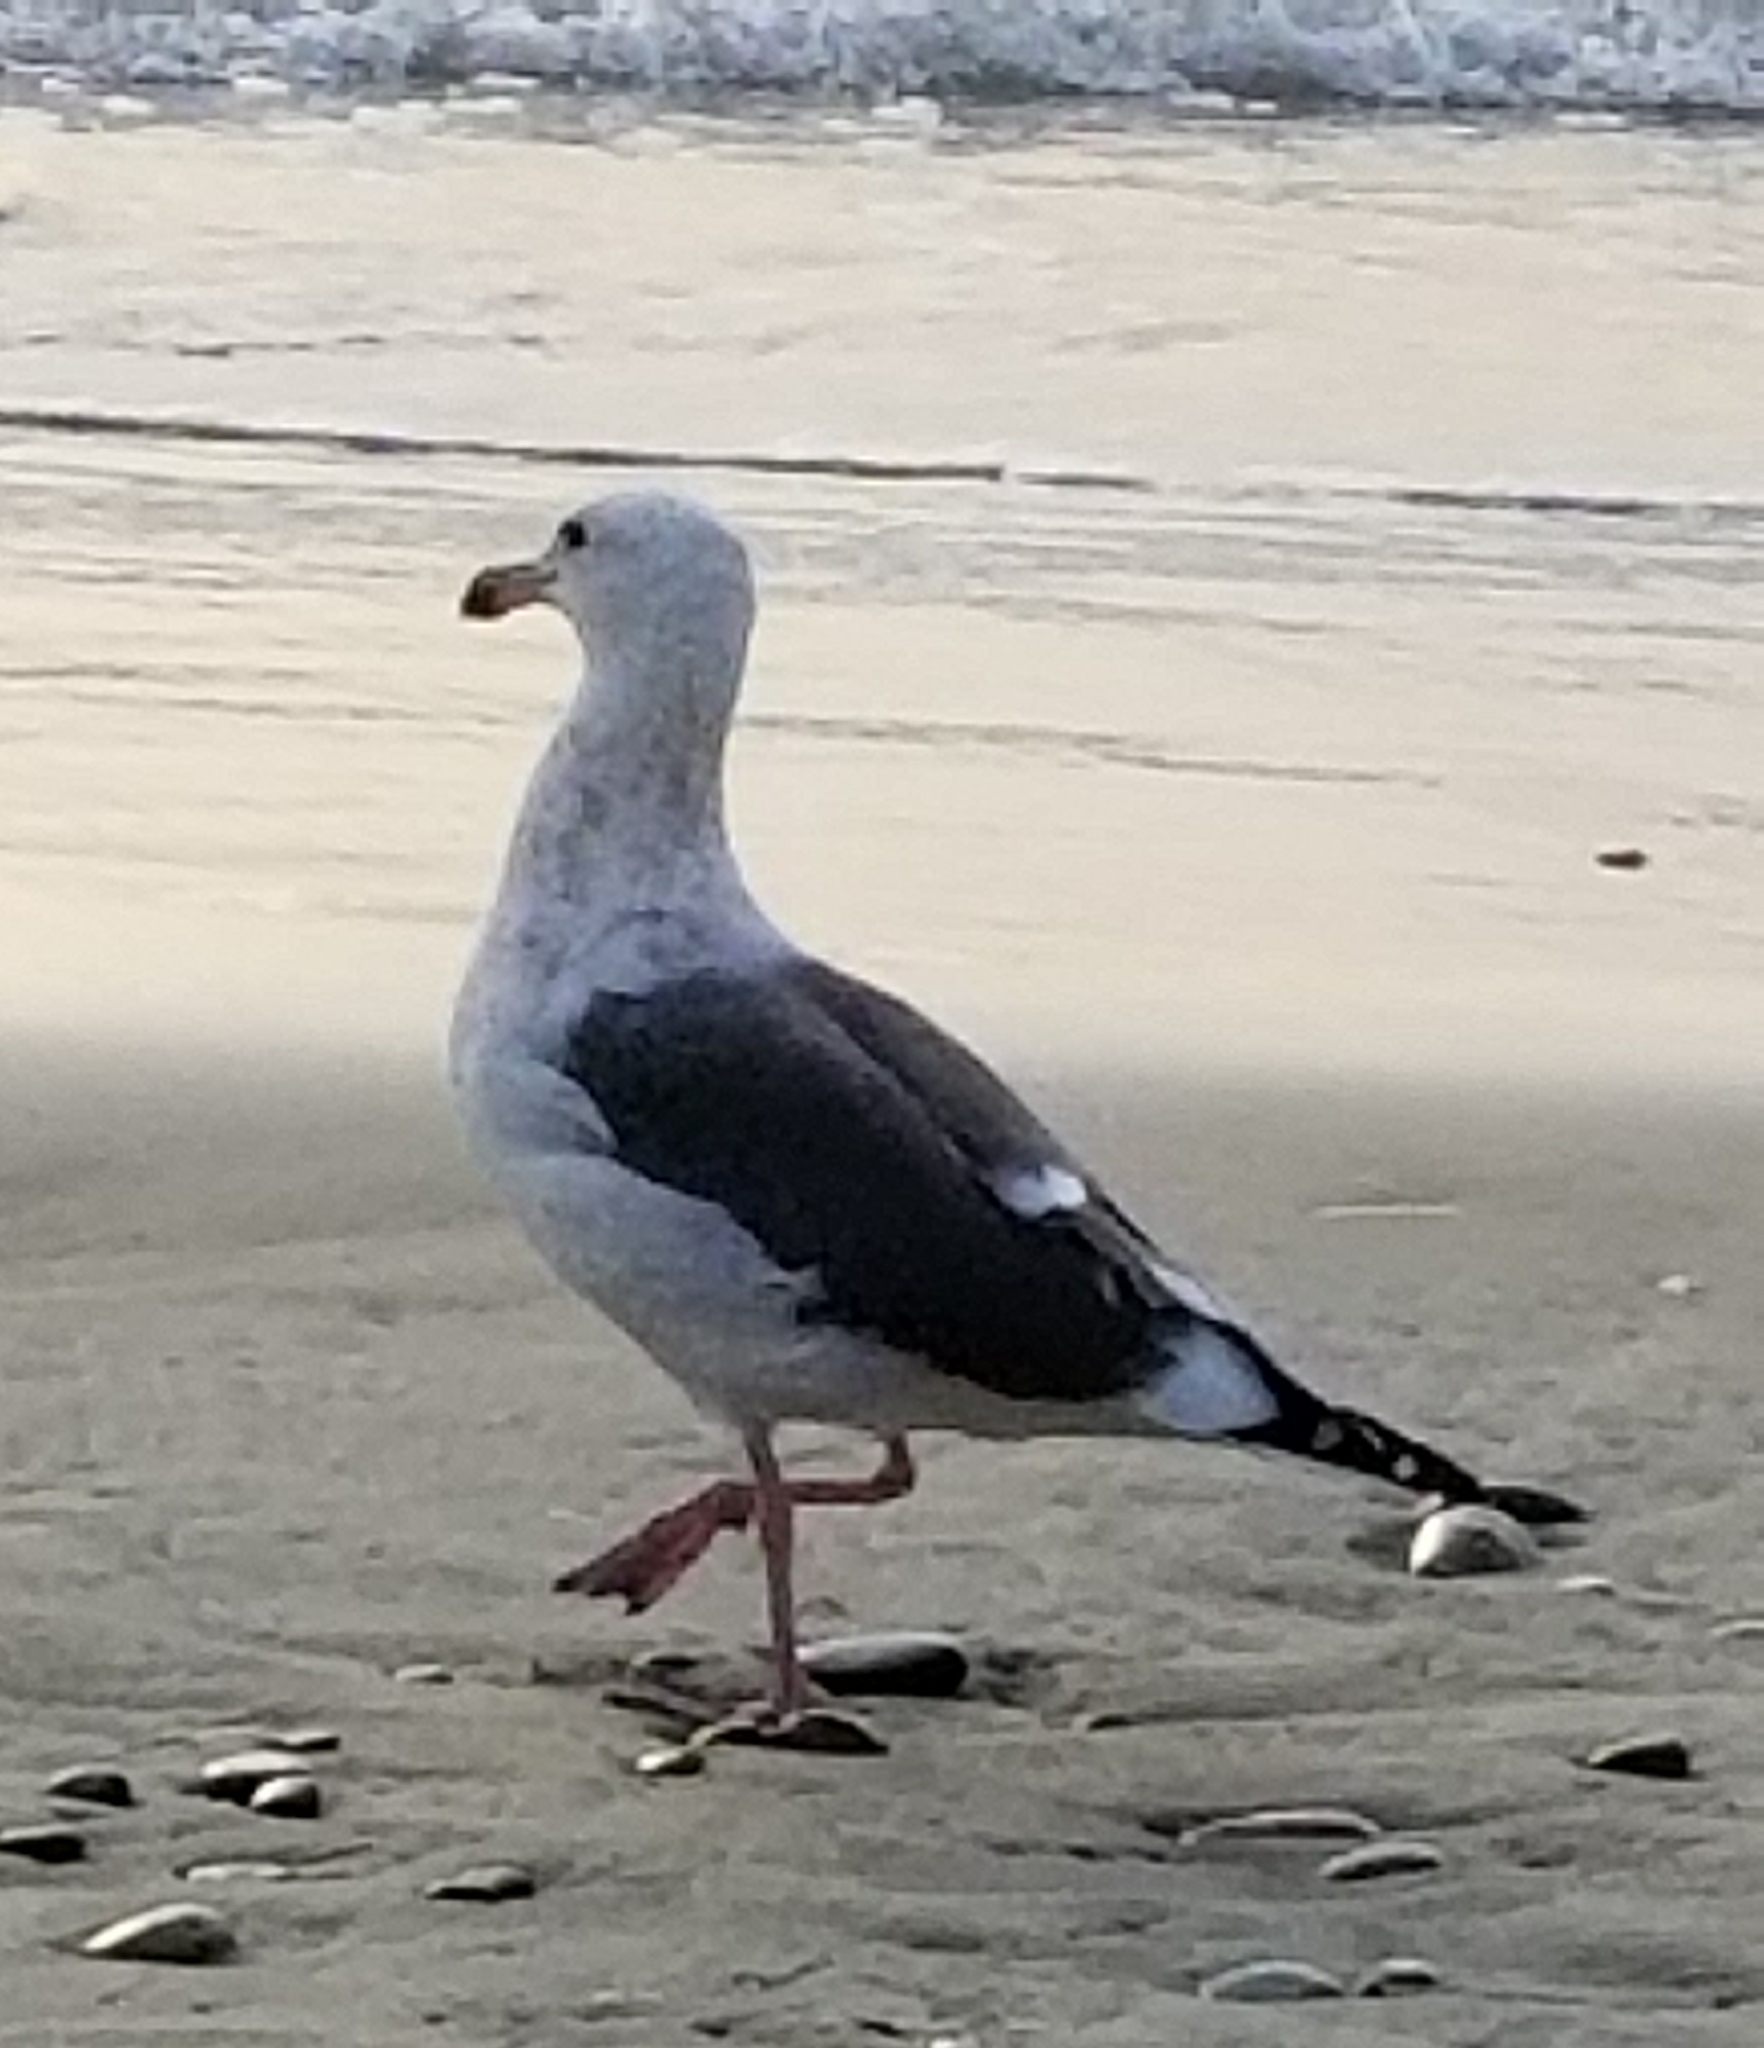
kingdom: Animalia
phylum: Chordata
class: Aves
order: Charadriiformes
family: Laridae
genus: Larus
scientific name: Larus occidentalis
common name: Western gull
